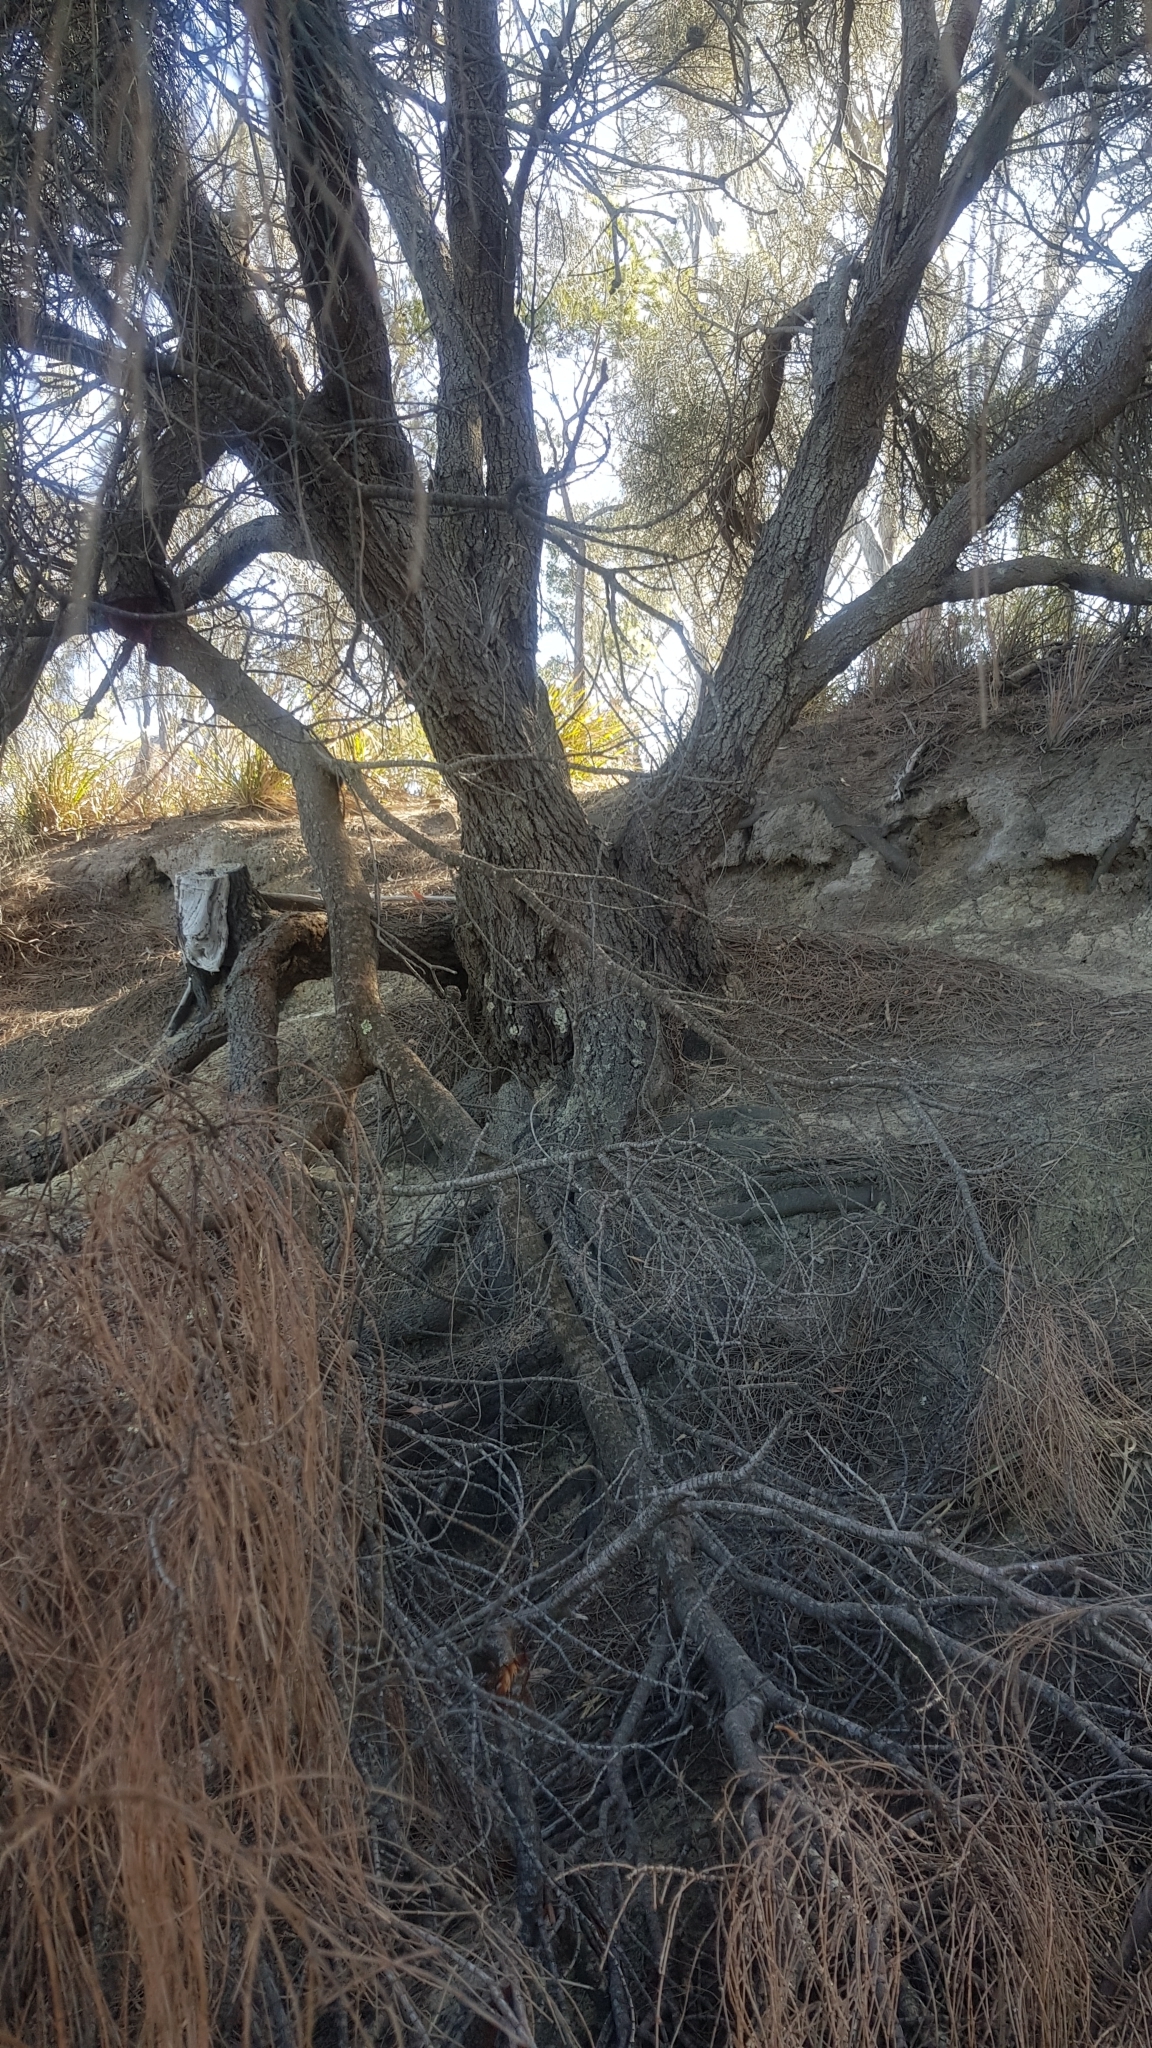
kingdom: Plantae
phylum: Tracheophyta
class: Magnoliopsida
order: Fagales
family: Casuarinaceae
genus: Allocasuarina
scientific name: Allocasuarina verticillata
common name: Drooping she-oak
